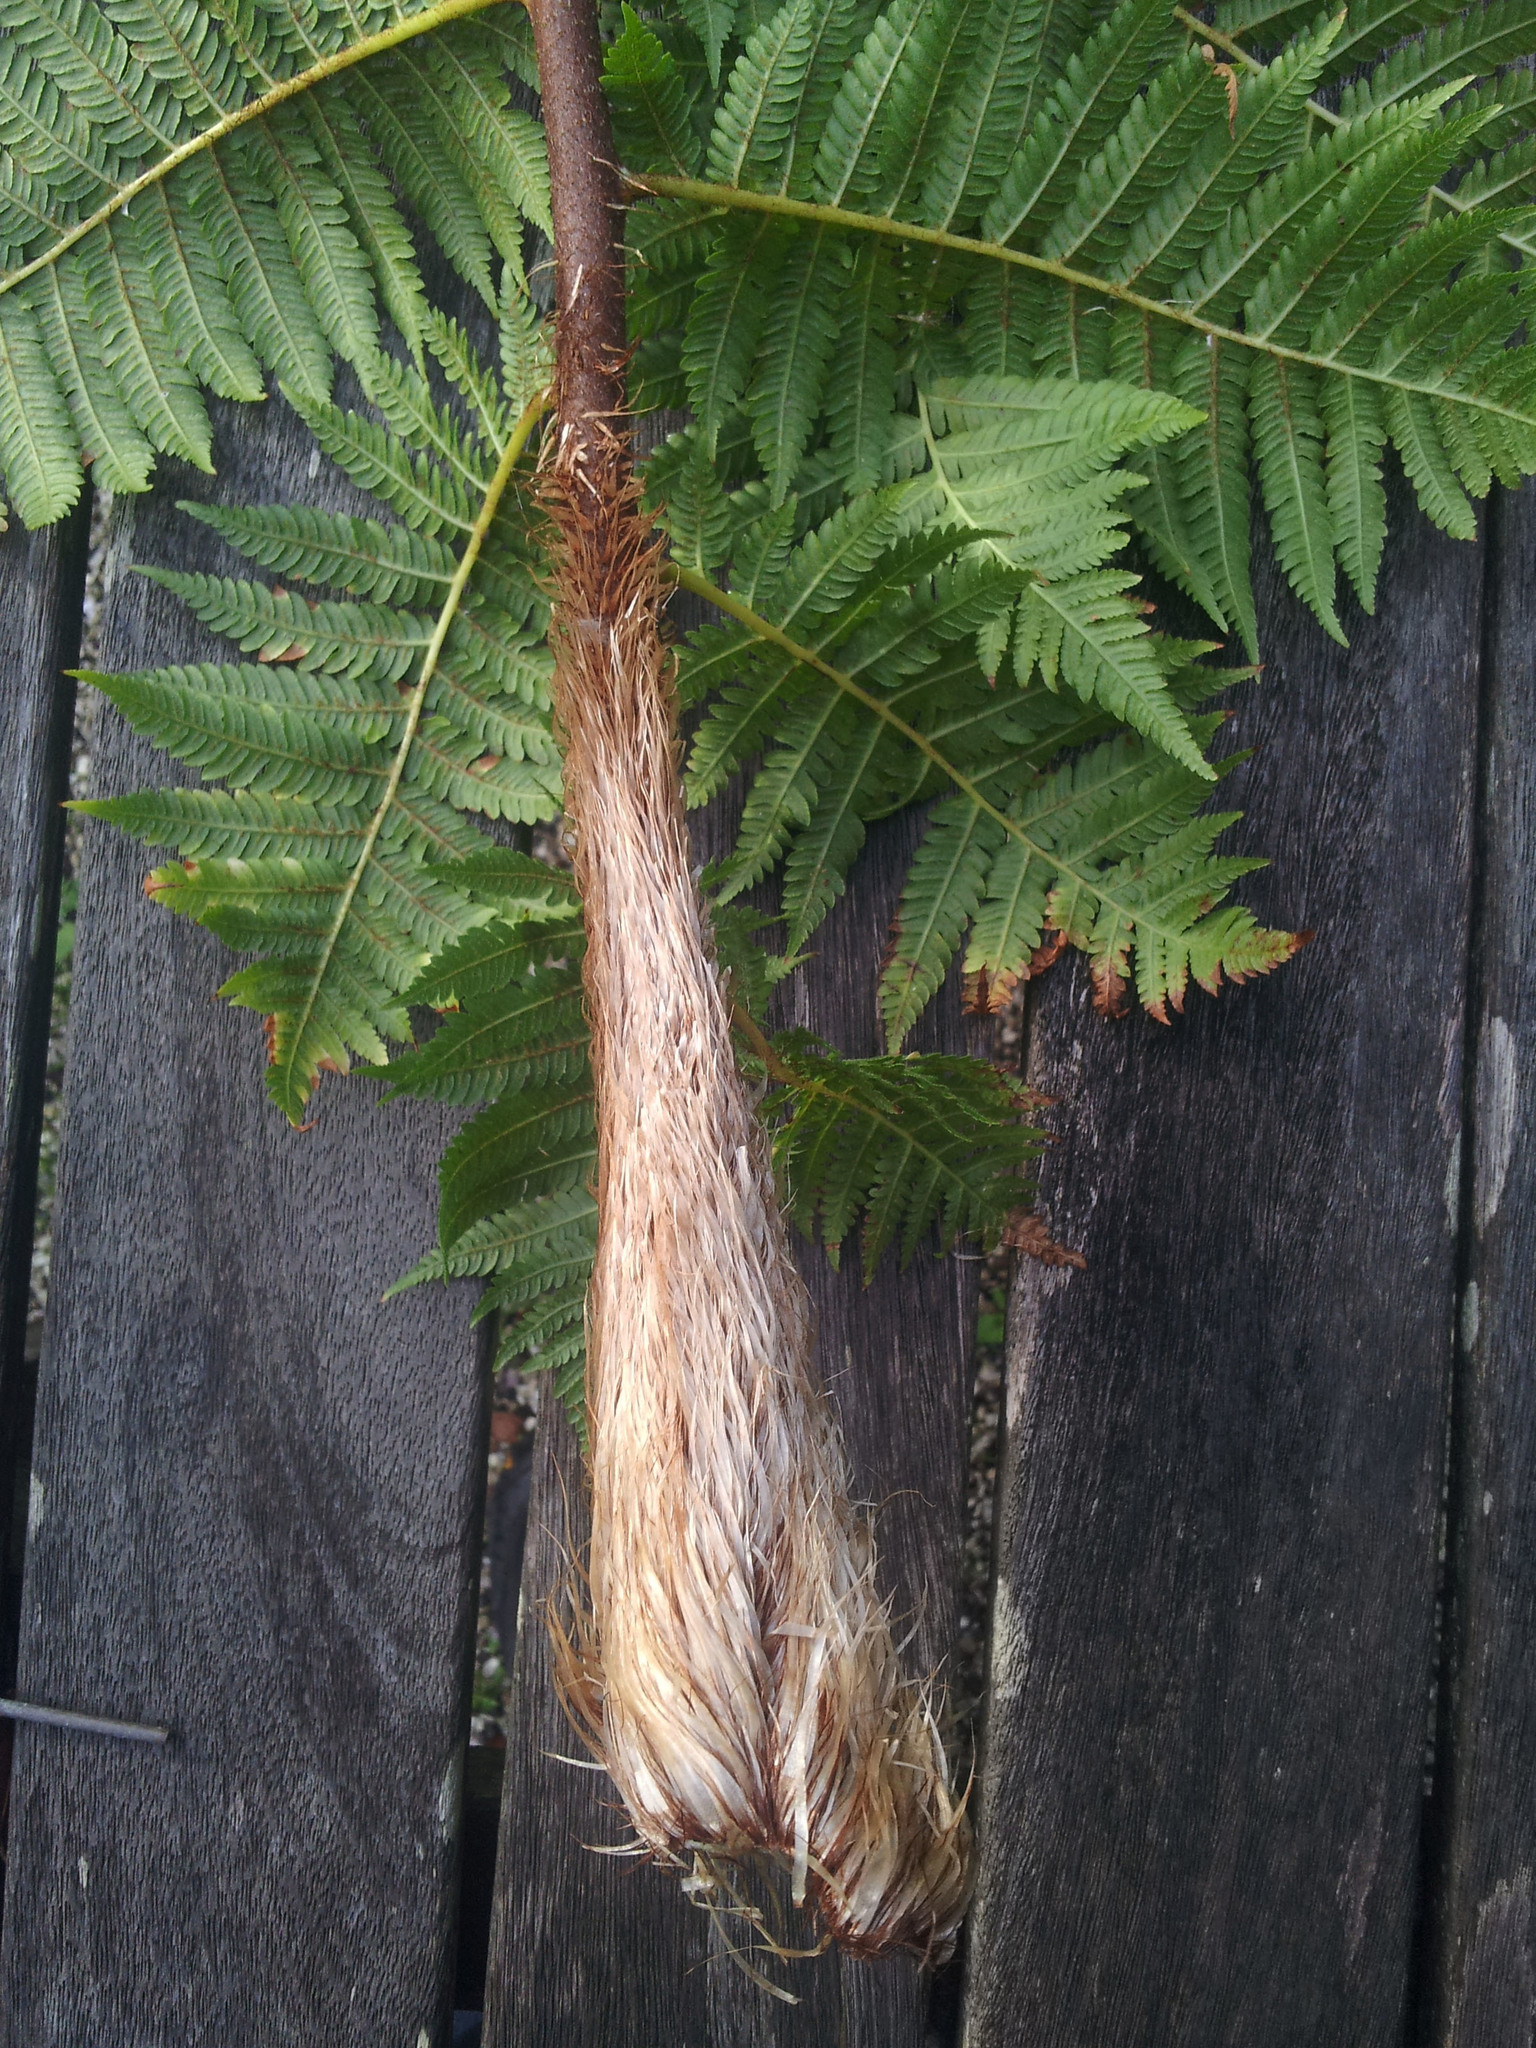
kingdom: Plantae
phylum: Tracheophyta
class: Polypodiopsida
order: Cyatheales
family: Cyatheaceae
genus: Sphaeropteris
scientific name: Sphaeropteris cooperi
